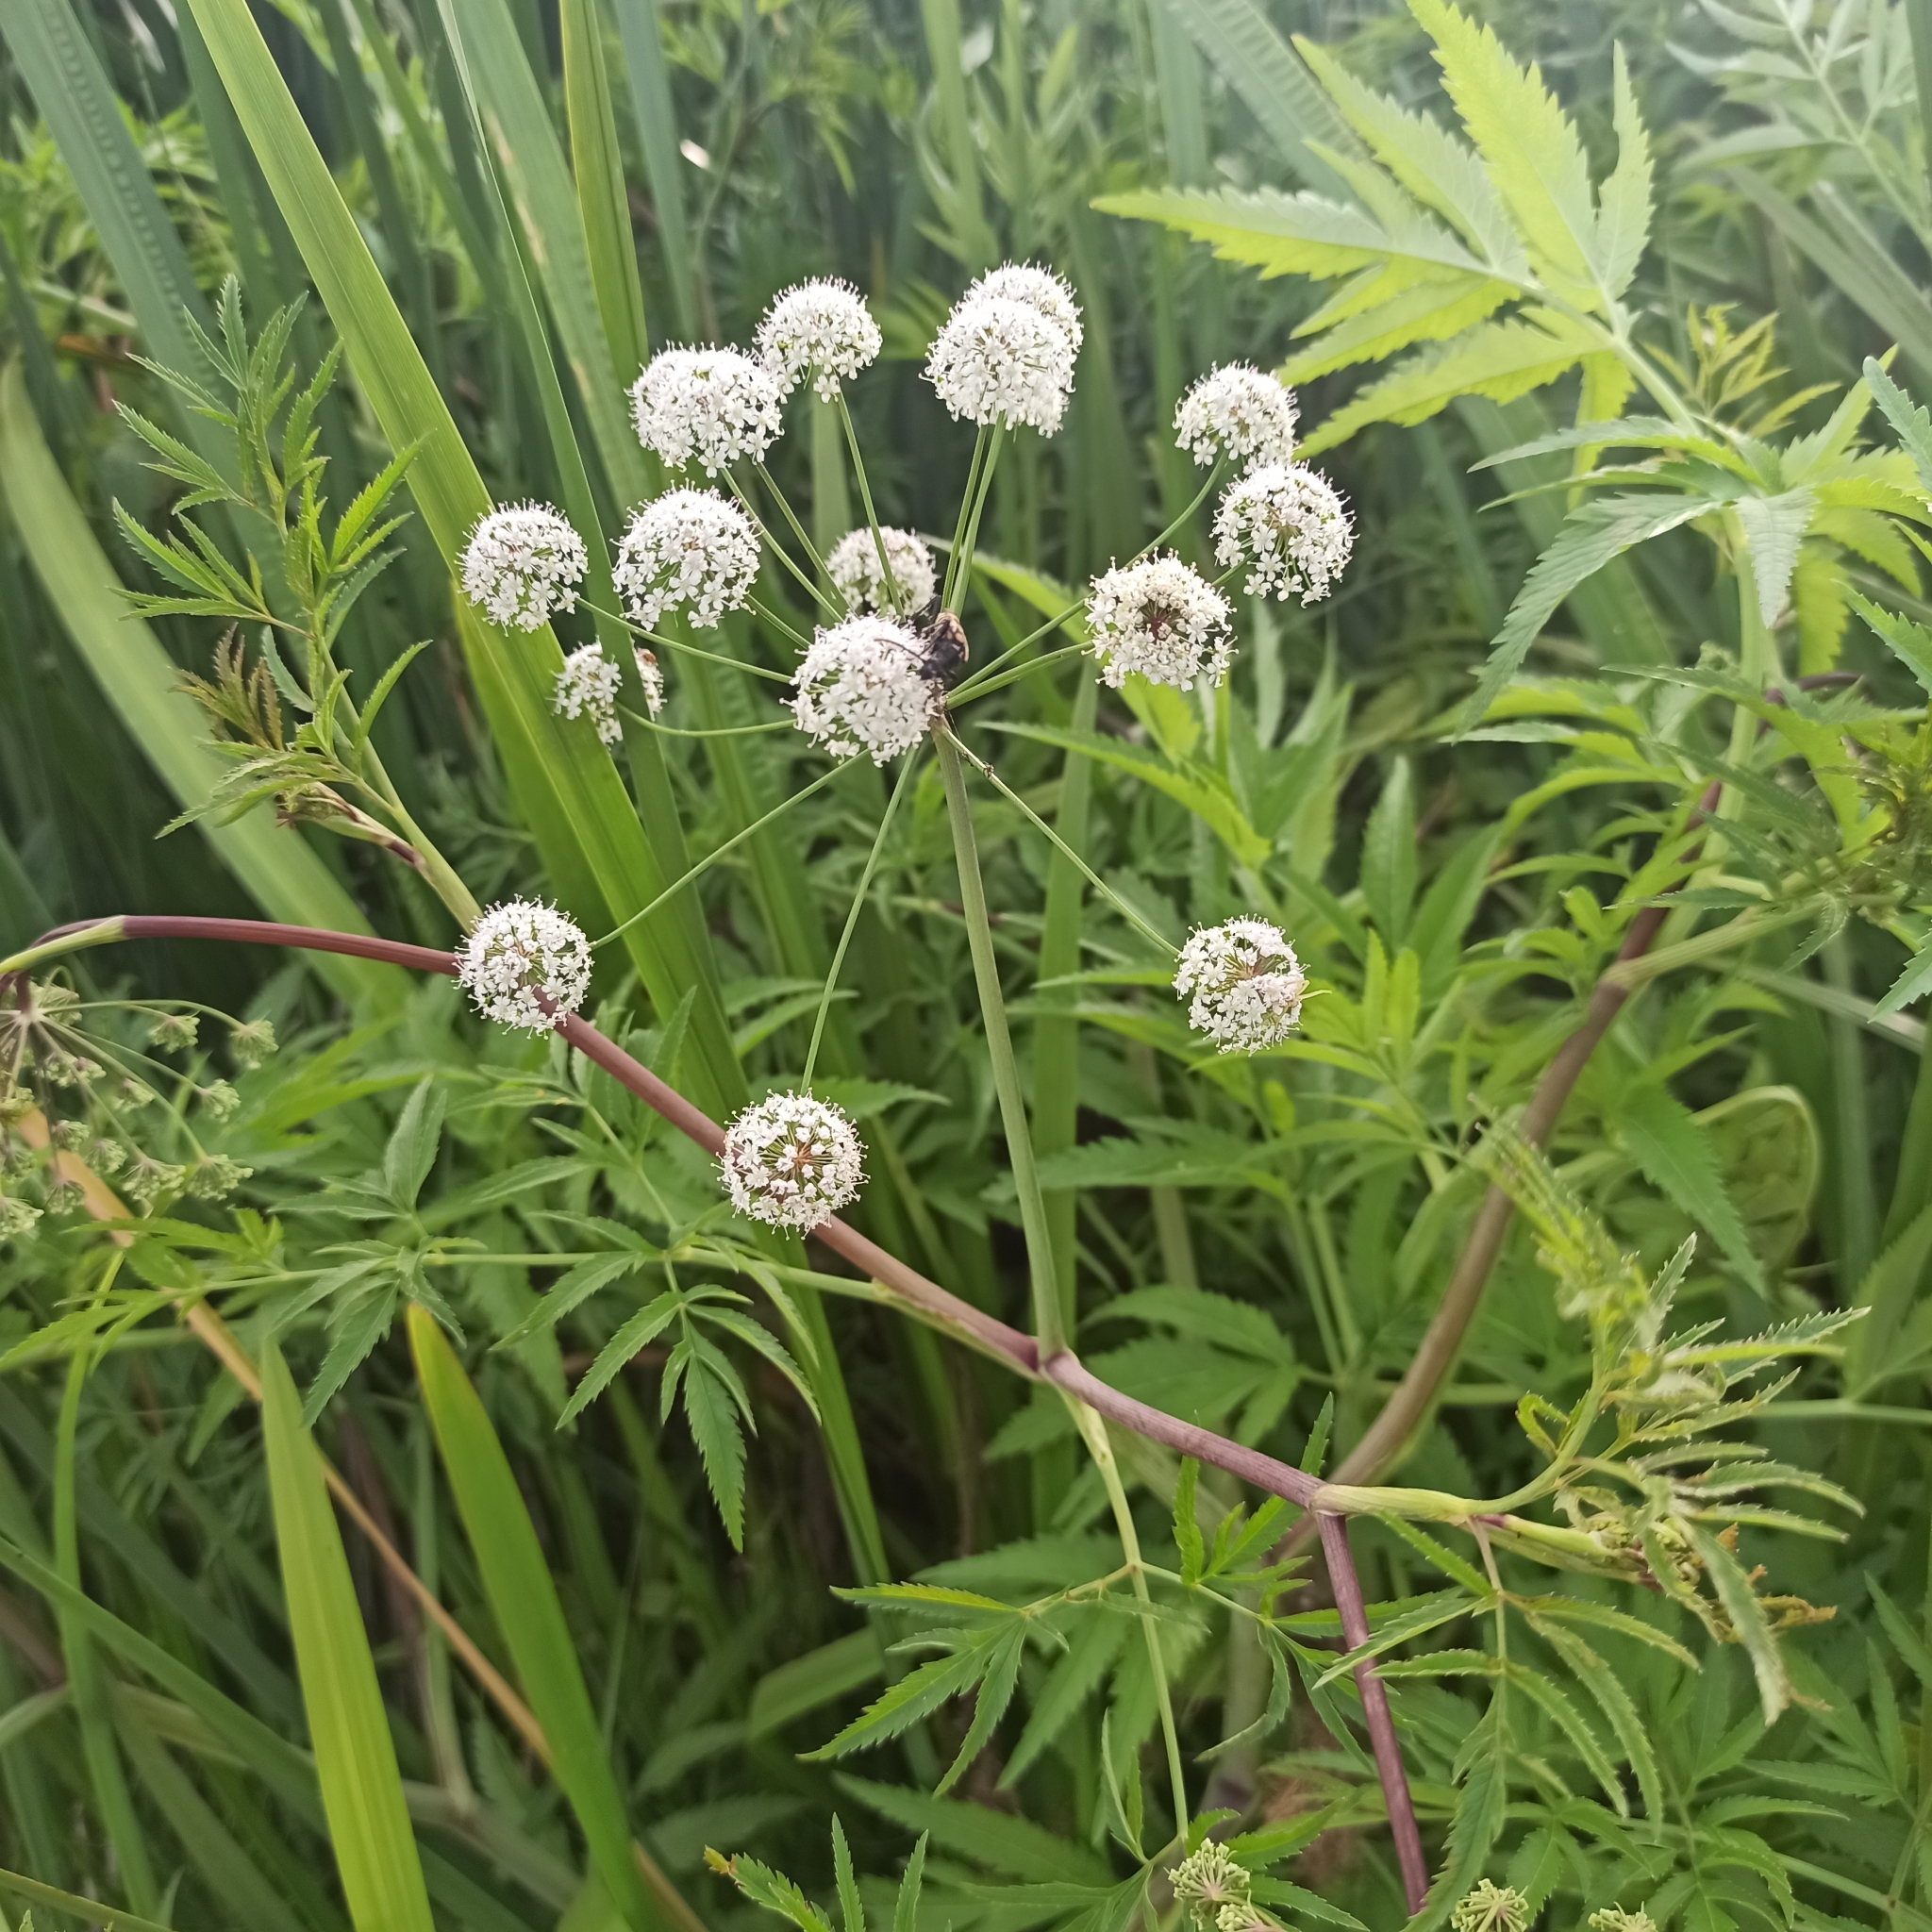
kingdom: Plantae
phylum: Tracheophyta
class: Magnoliopsida
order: Apiales
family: Apiaceae
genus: Cicuta
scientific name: Cicuta virosa
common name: Cowbane
